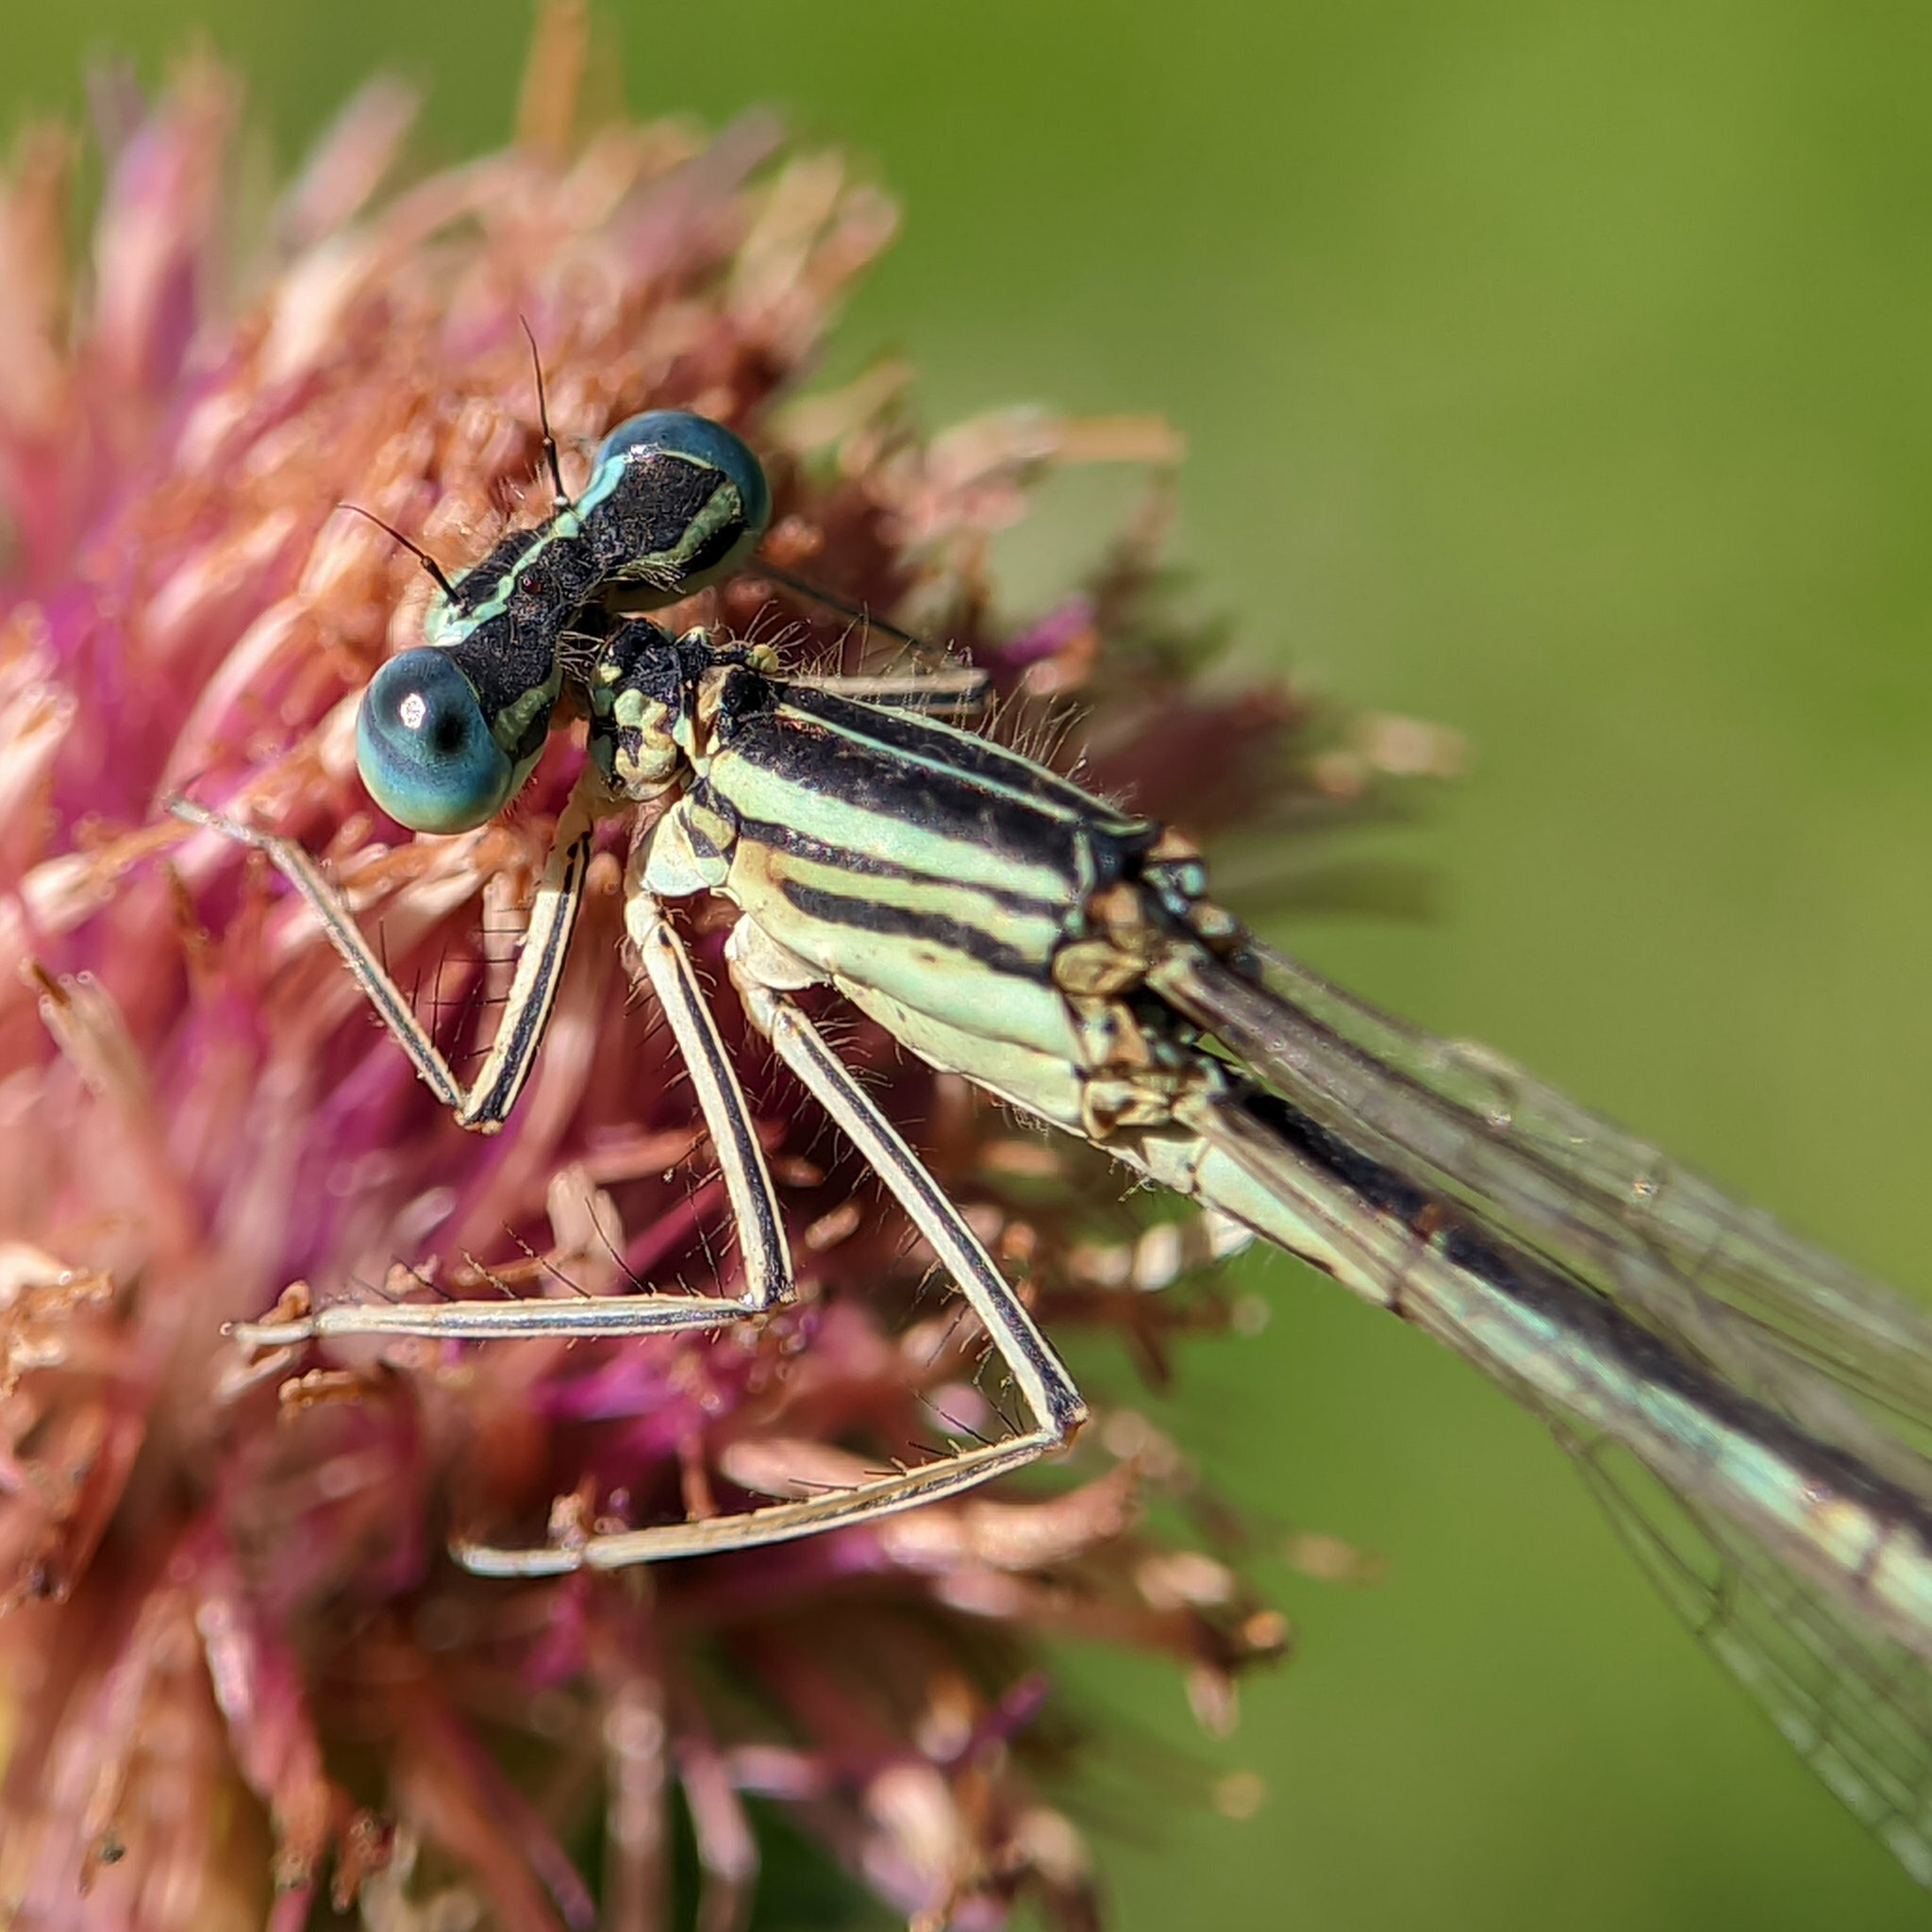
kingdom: Animalia
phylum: Arthropoda
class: Insecta
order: Odonata
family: Platycnemididae
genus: Platycnemis
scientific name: Platycnemis pennipes
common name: White-legged damselfly
